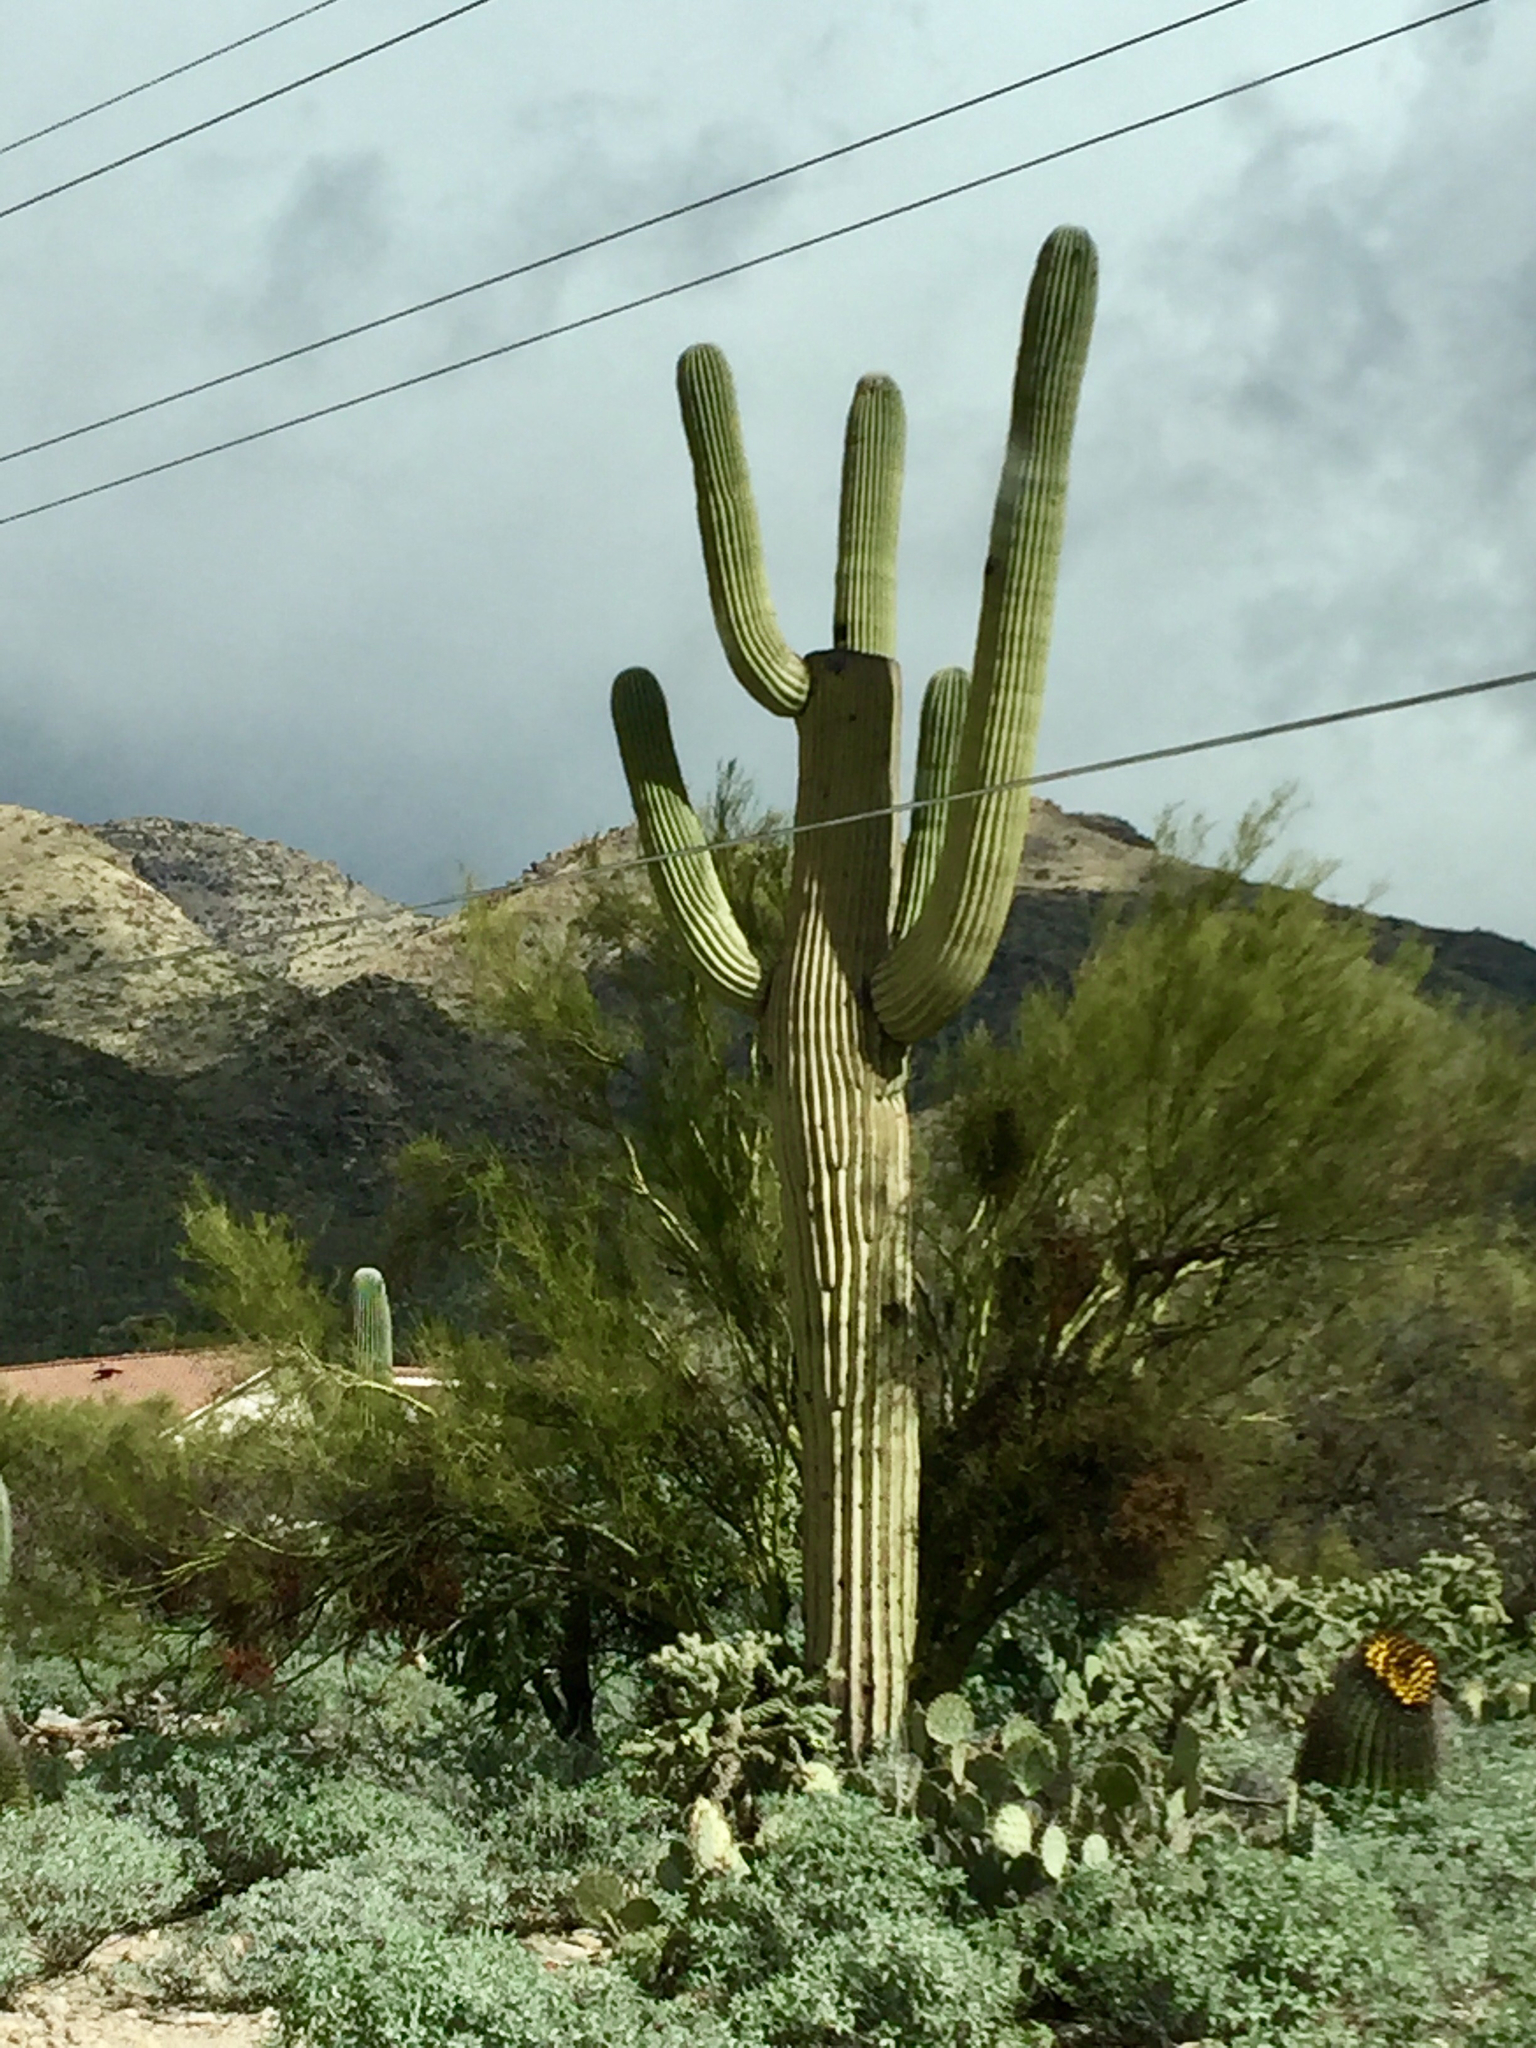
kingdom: Plantae
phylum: Tracheophyta
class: Magnoliopsida
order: Caryophyllales
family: Cactaceae
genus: Carnegiea
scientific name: Carnegiea gigantea
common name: Saguaro
